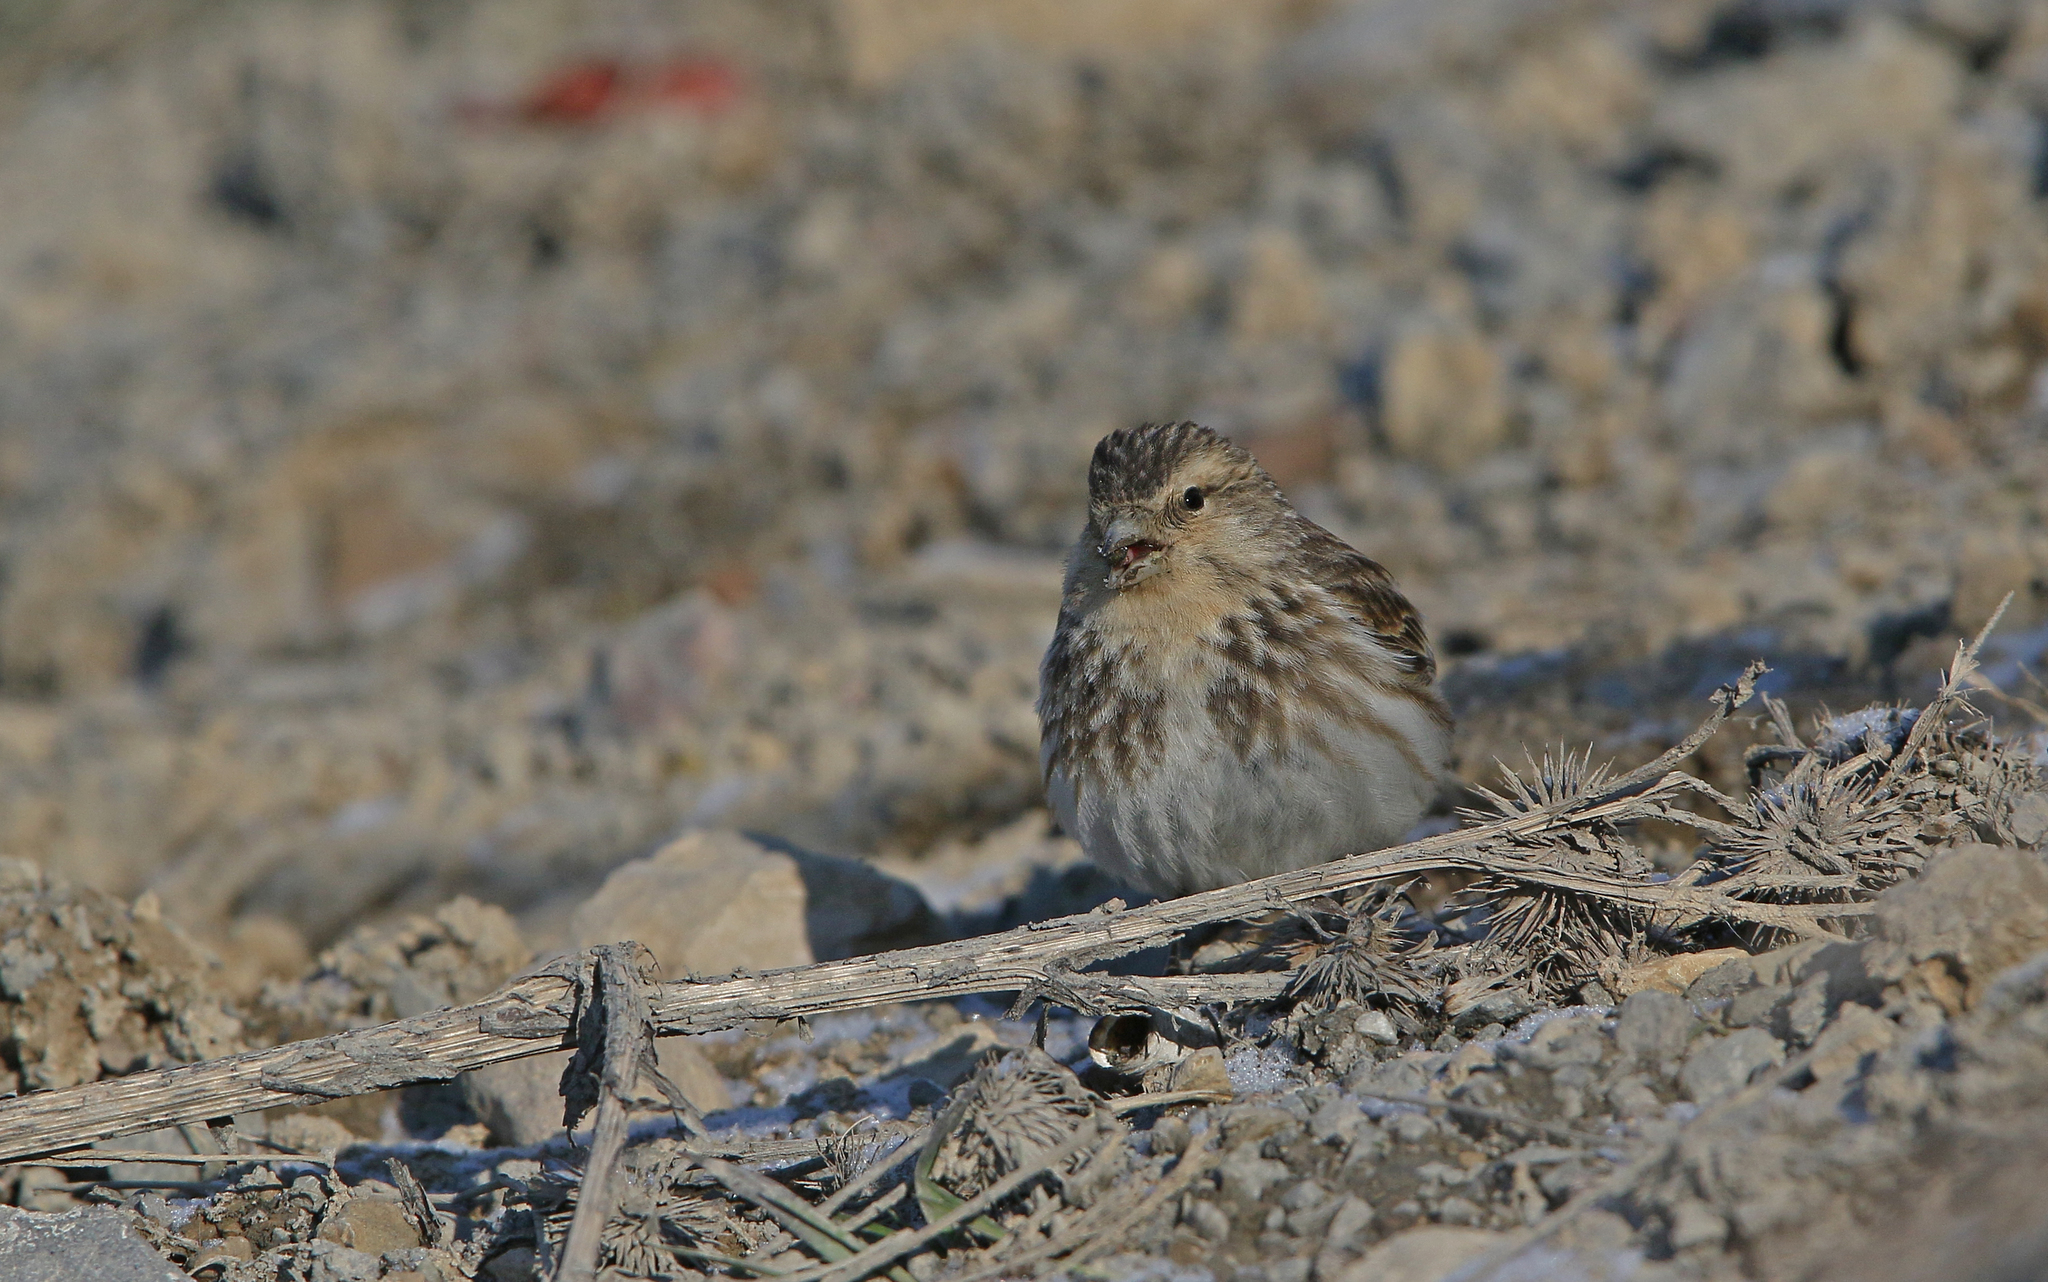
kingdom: Animalia
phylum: Chordata
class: Aves
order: Passeriformes
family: Fringillidae
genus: Linaria
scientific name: Linaria flavirostris
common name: Twite
